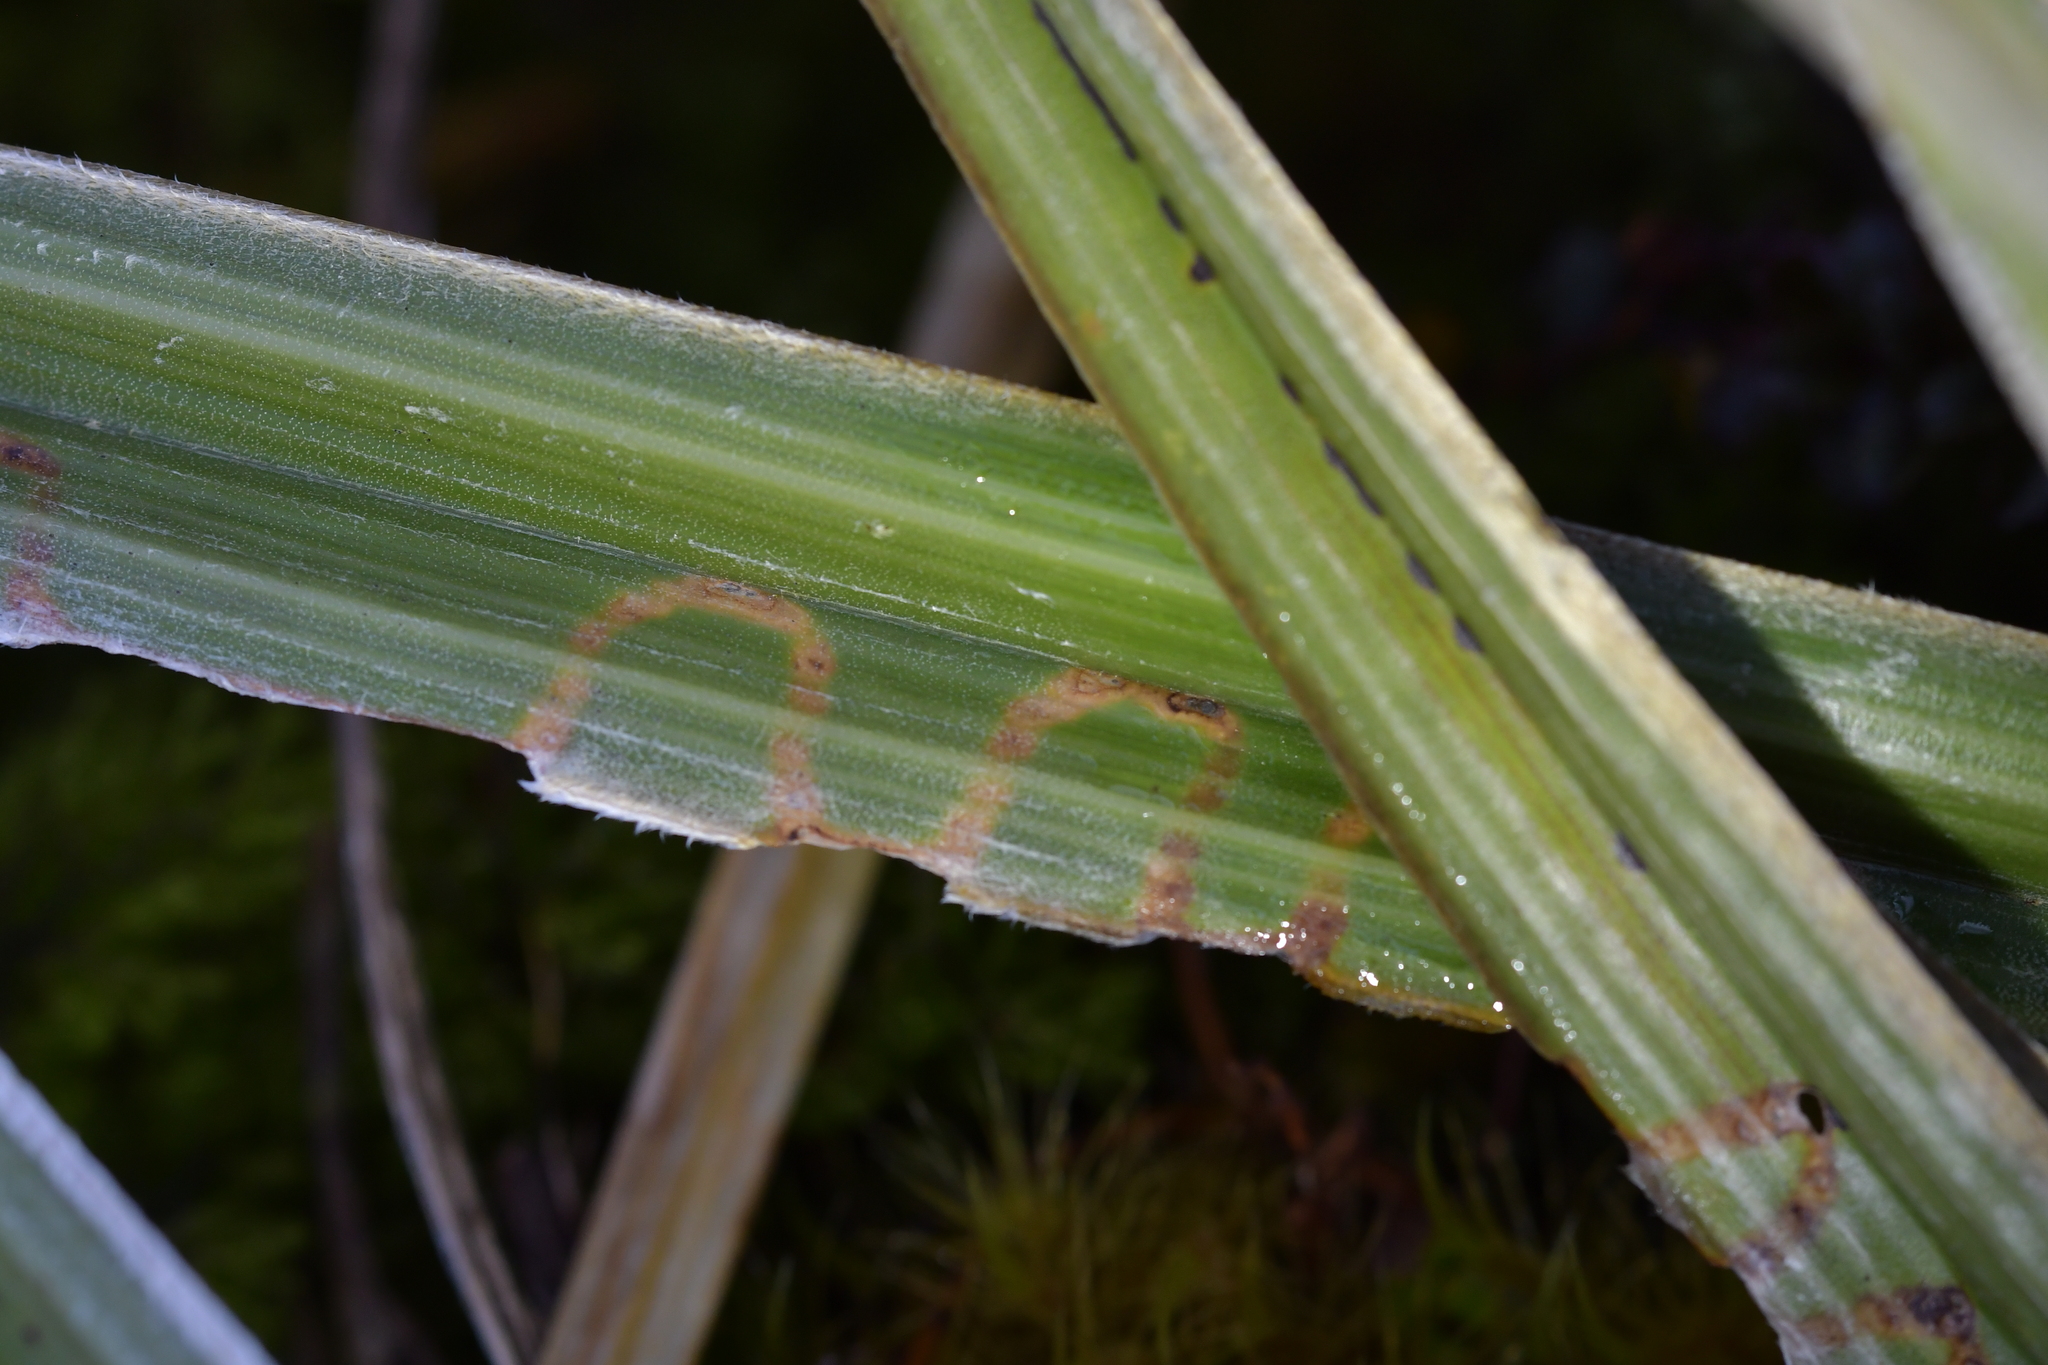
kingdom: Animalia
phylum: Arthropoda
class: Insecta
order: Lepidoptera
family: Plutellidae
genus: Charixena
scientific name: Charixena iridoxa
